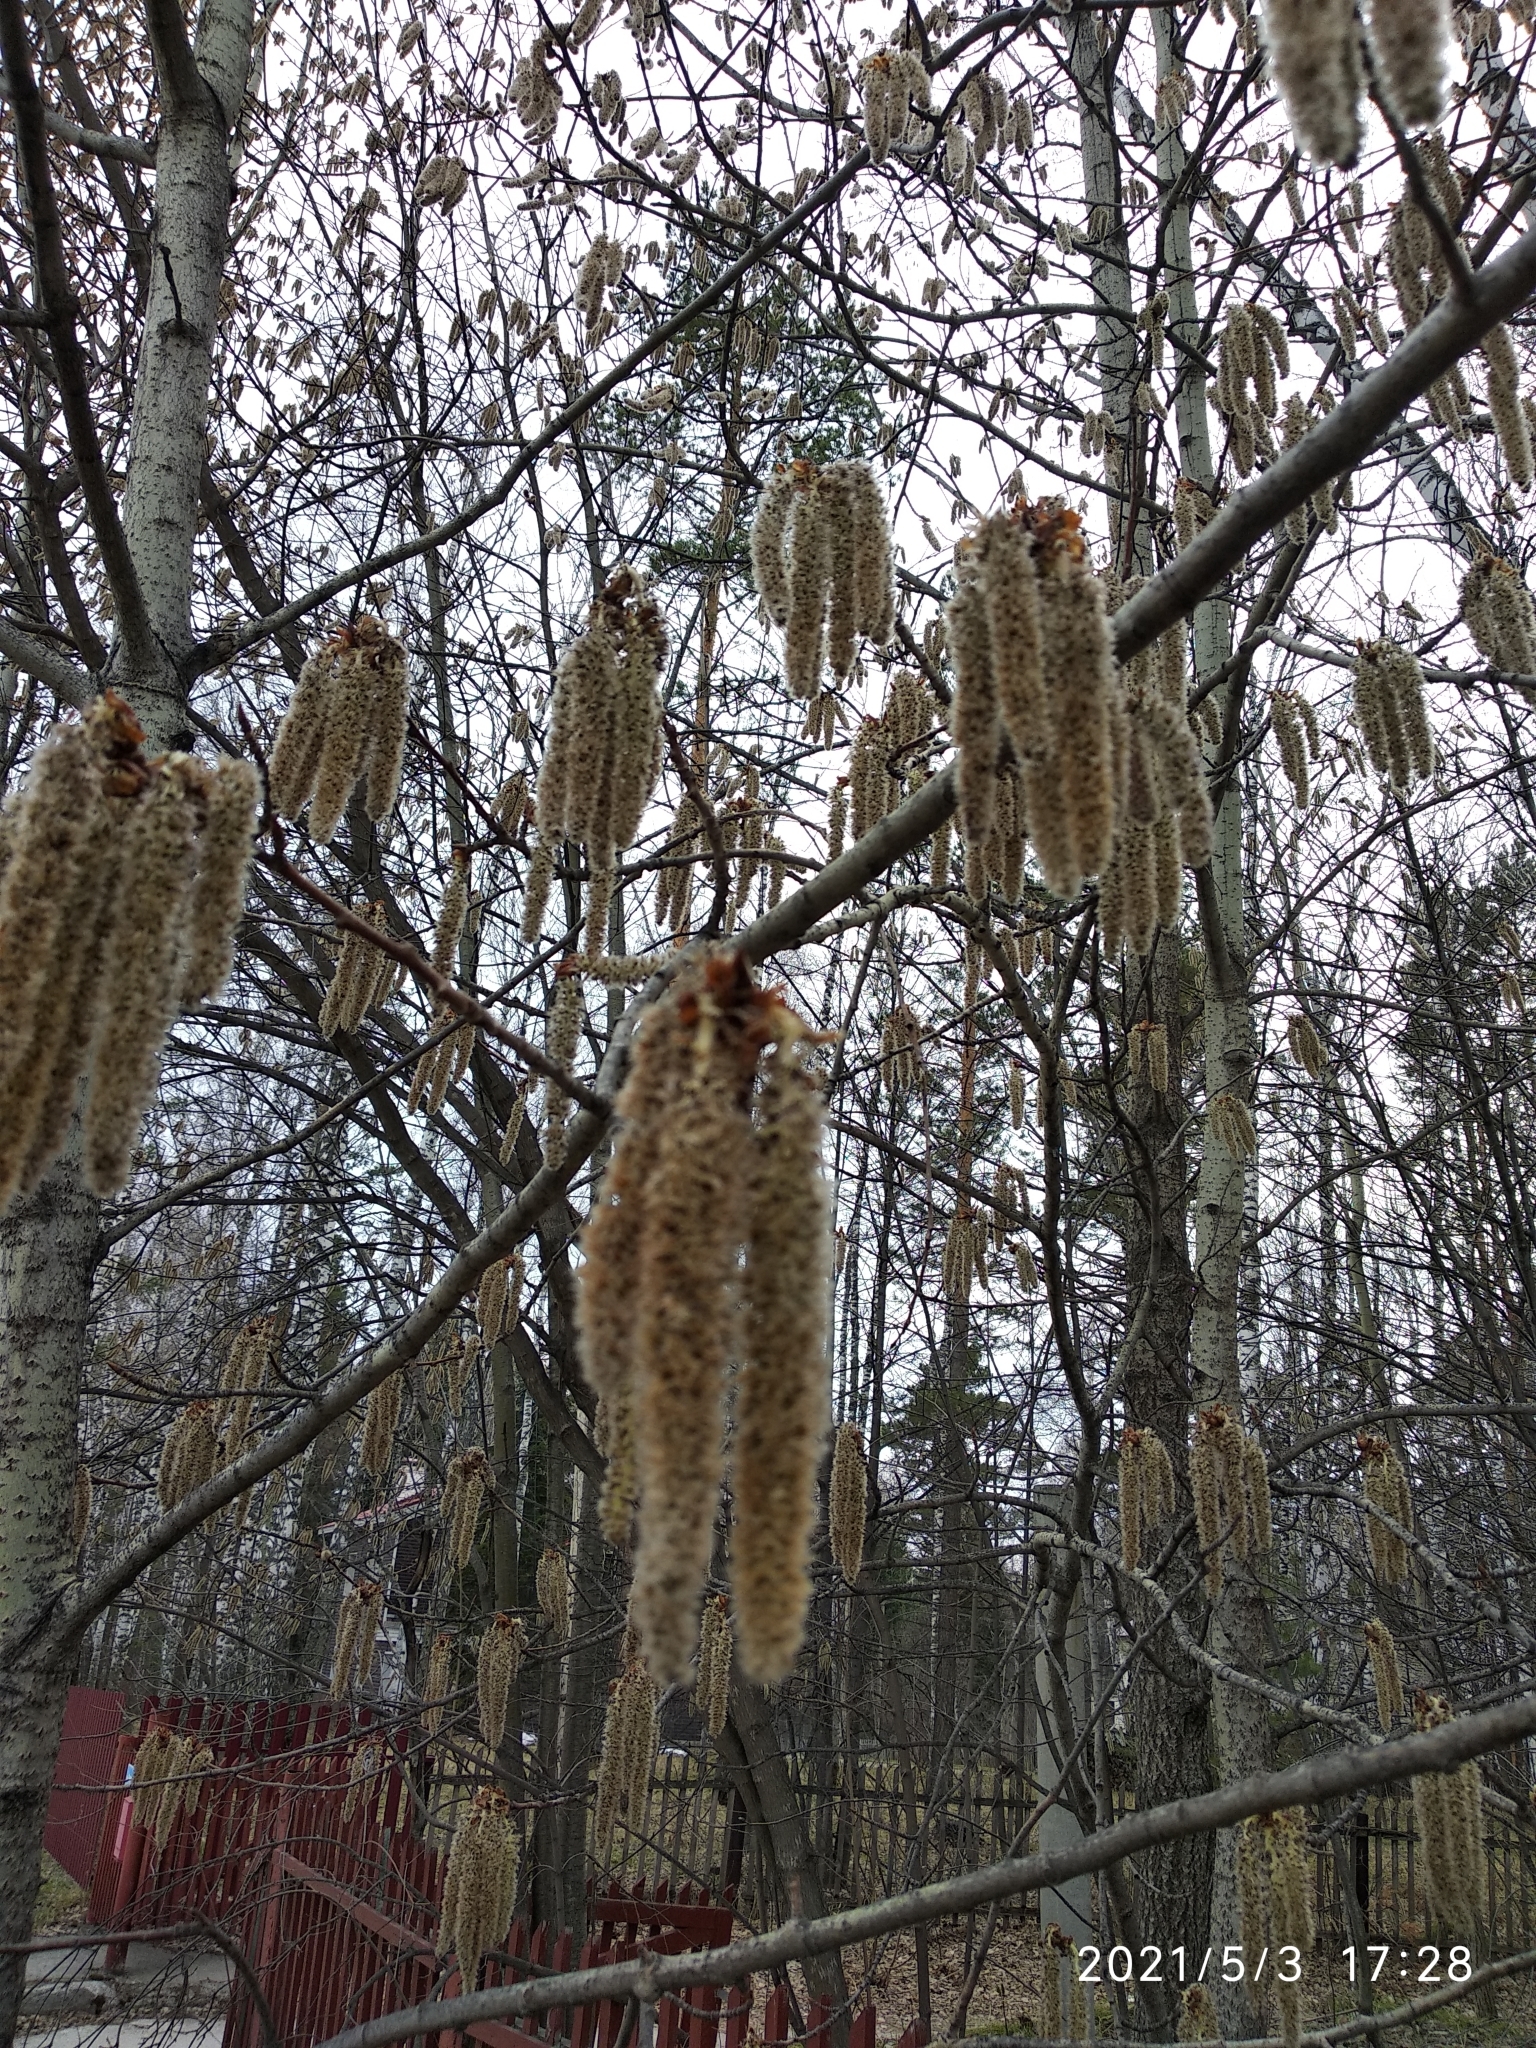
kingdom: Plantae
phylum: Tracheophyta
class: Magnoliopsida
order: Malpighiales
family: Salicaceae
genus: Populus
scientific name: Populus tremula
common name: European aspen
